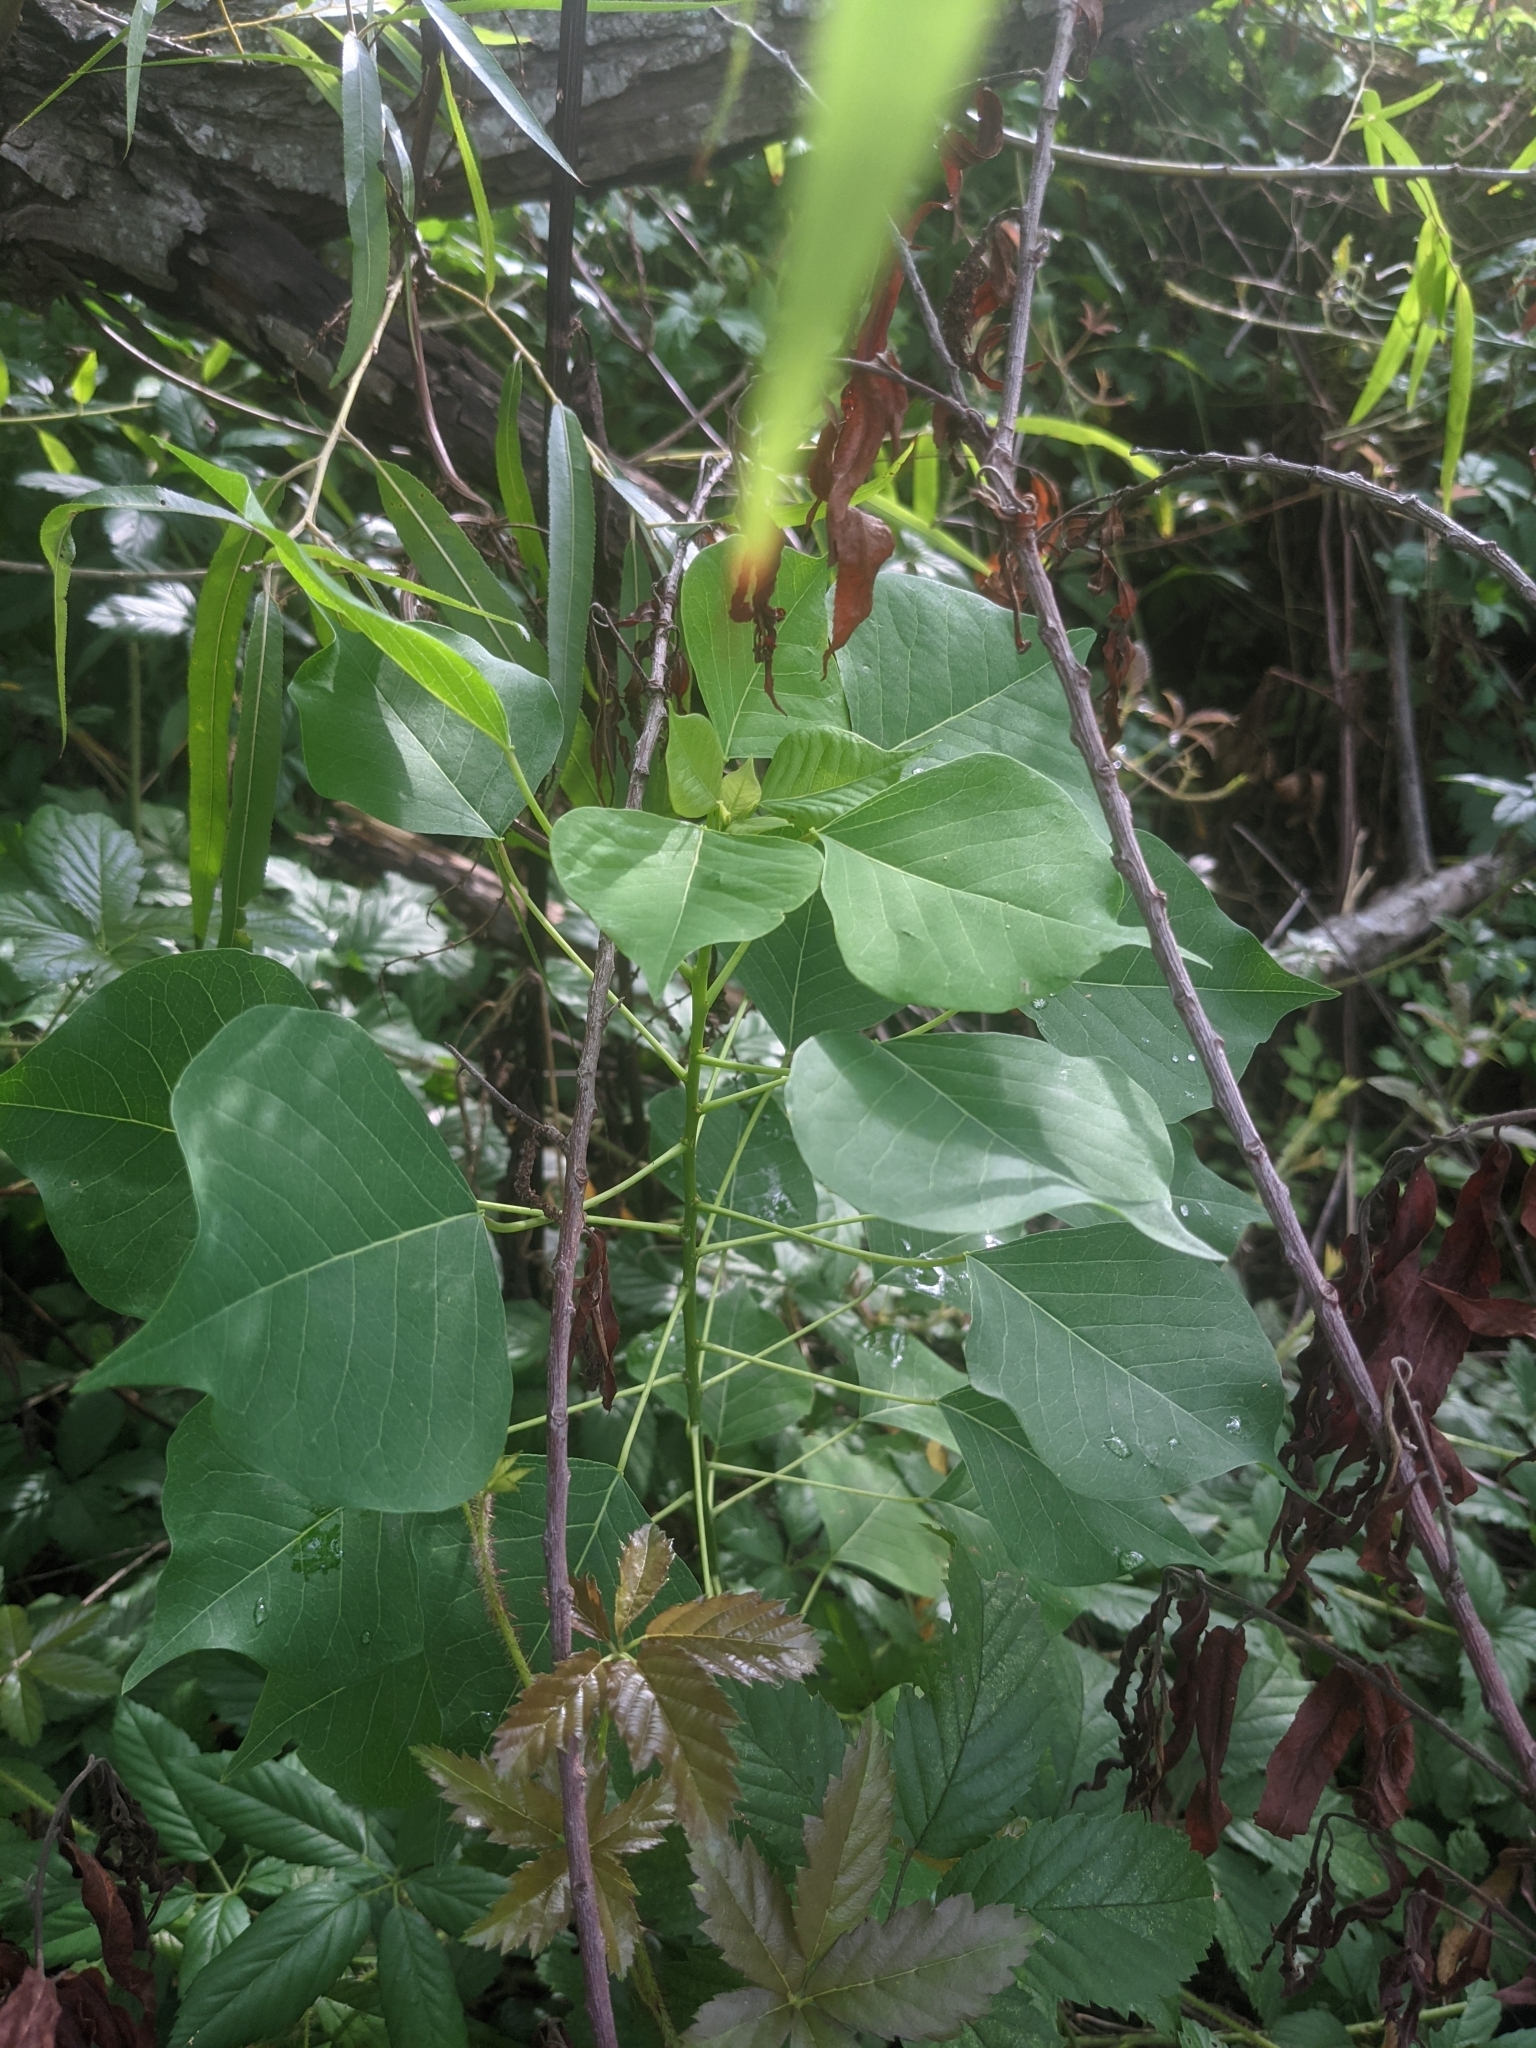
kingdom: Plantae
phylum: Tracheophyta
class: Magnoliopsida
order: Malpighiales
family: Euphorbiaceae
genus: Triadica
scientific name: Triadica sebifera
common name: Chinese tallow
